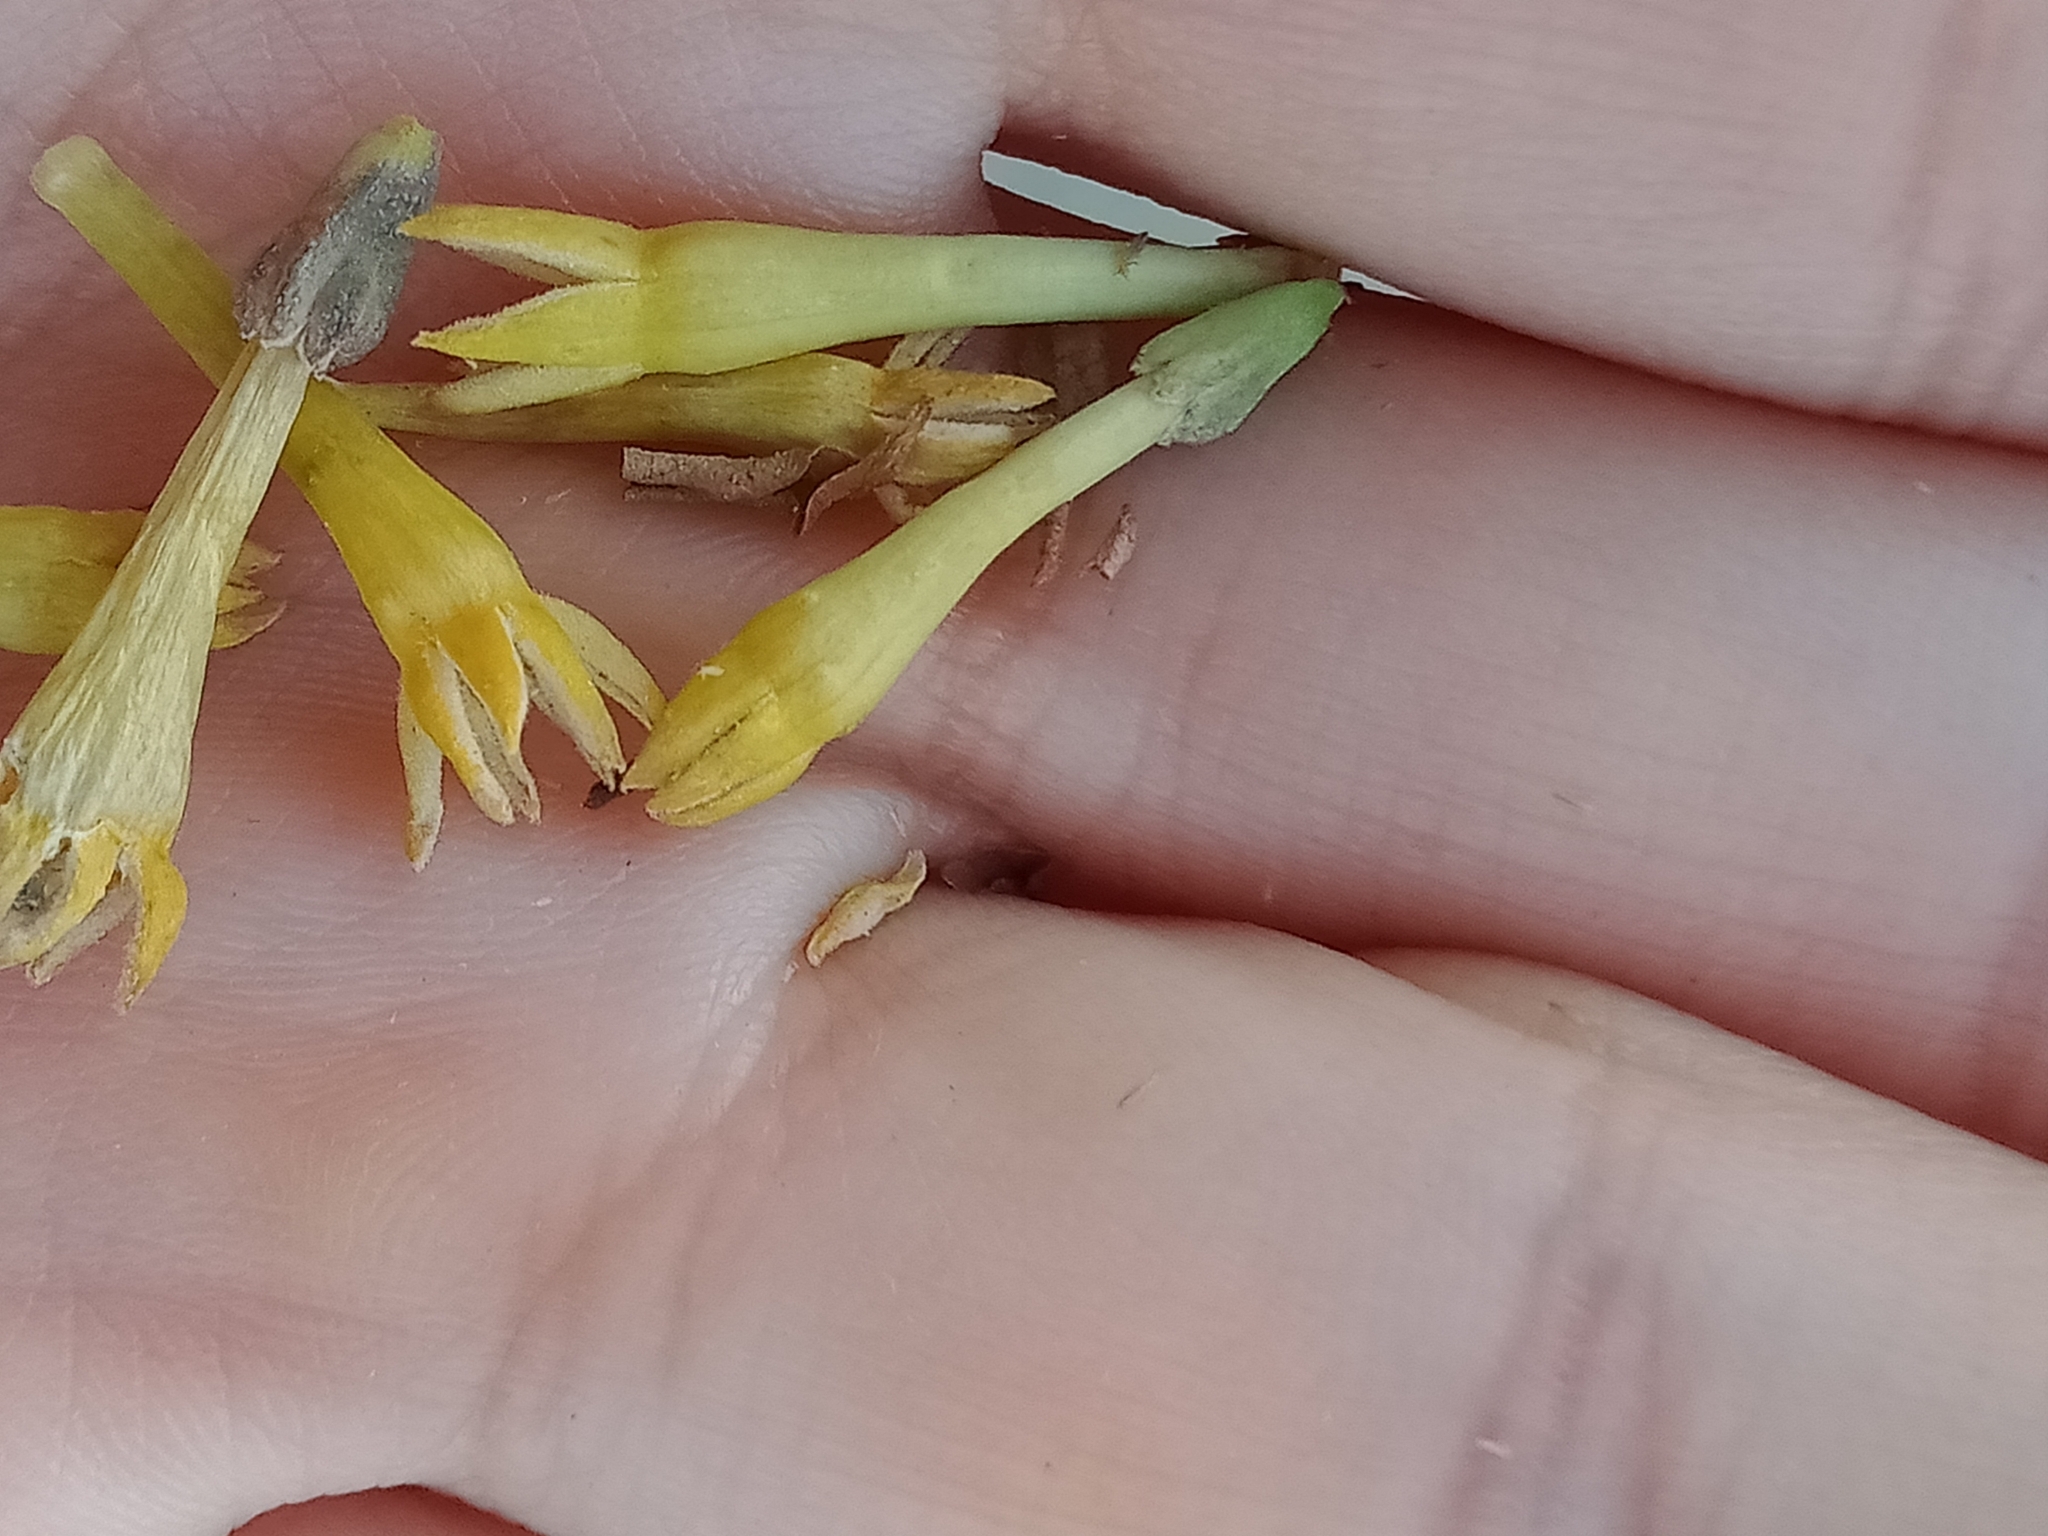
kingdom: Plantae
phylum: Tracheophyta
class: Magnoliopsida
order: Solanales
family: Solanaceae
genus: Cestrum
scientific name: Cestrum parqui
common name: Chilean cestrum
